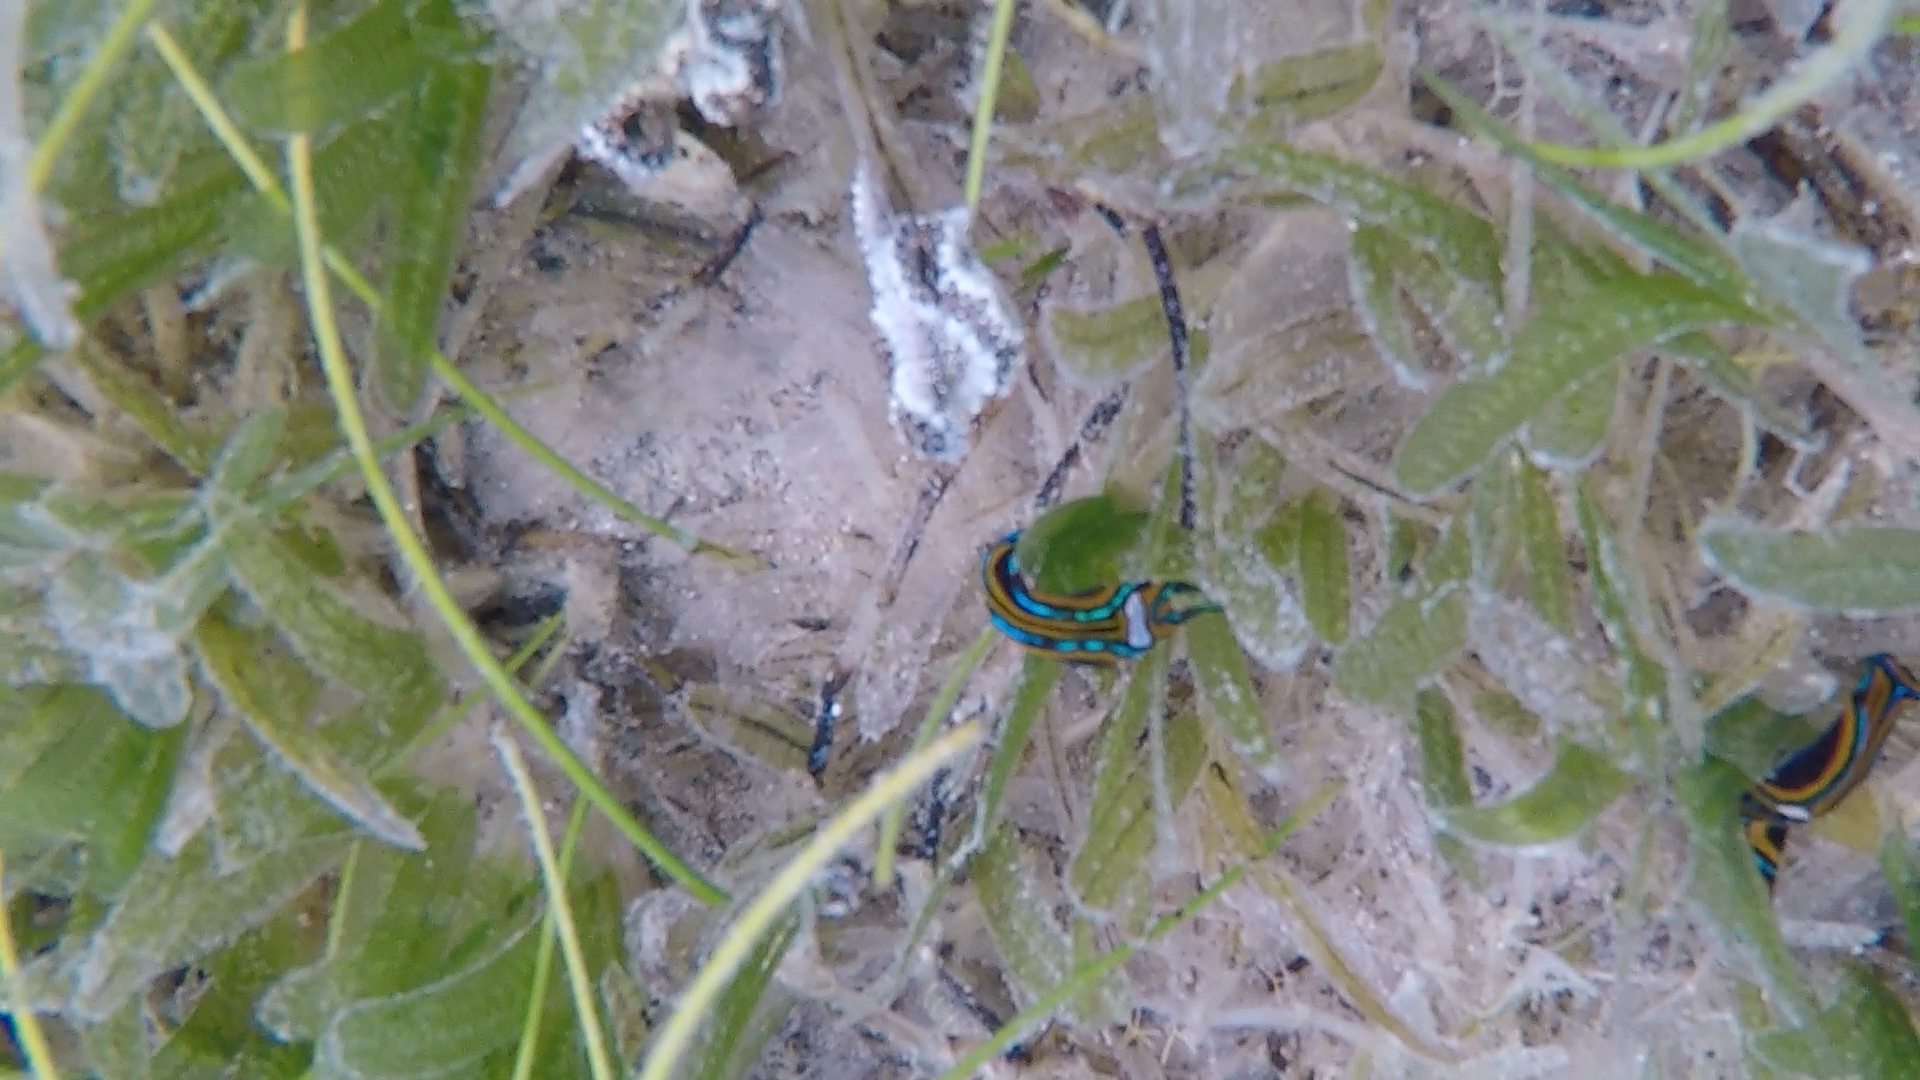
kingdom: Animalia
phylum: Mollusca
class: Gastropoda
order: Cephalaspidea
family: Aglajidae
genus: Chelidonura
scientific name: Chelidonura hirundinina
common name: Leech headshield slug
